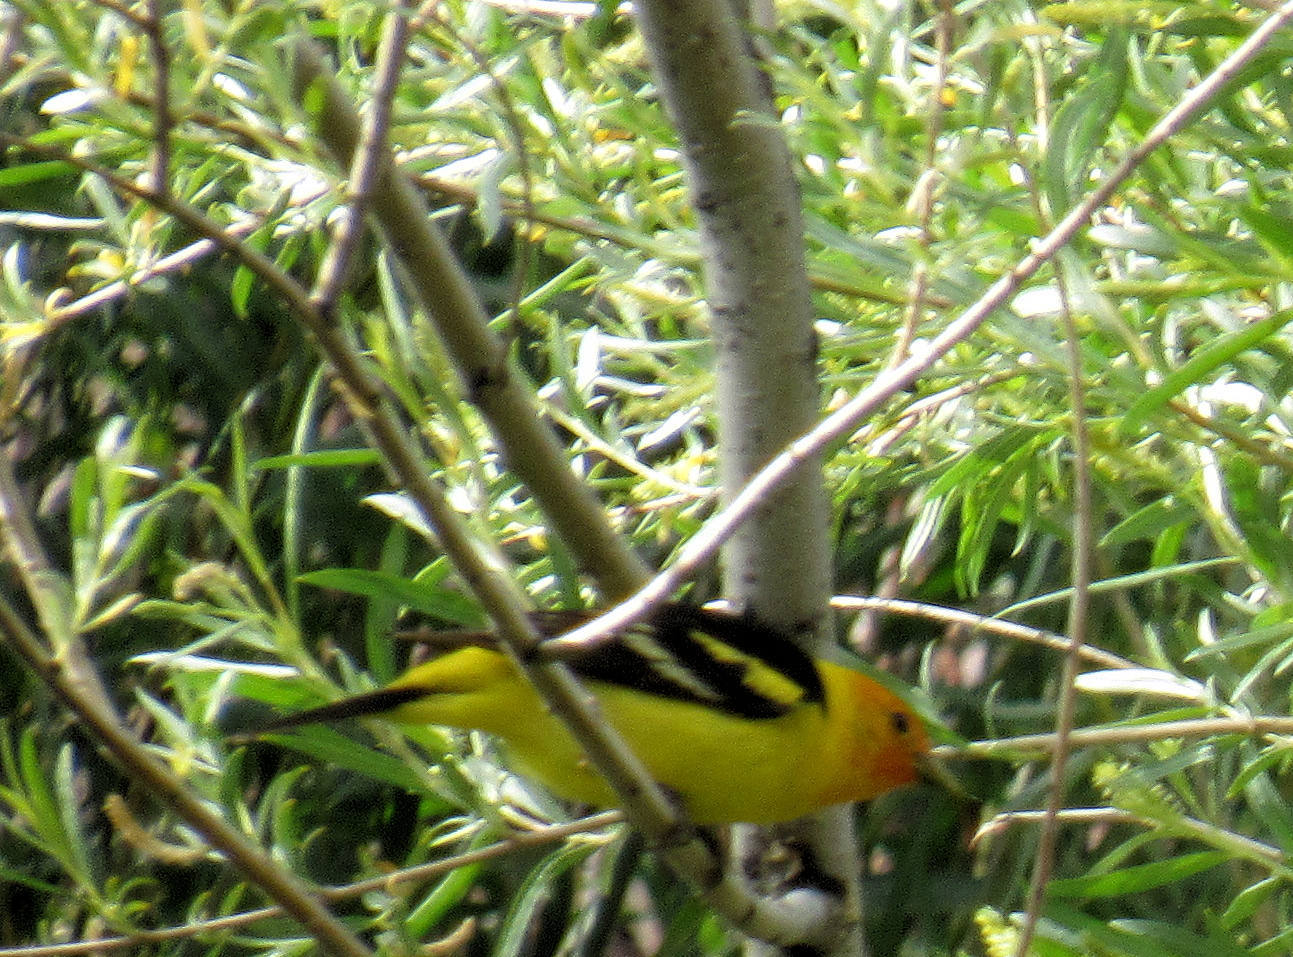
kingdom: Animalia
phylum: Chordata
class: Aves
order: Passeriformes
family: Cardinalidae
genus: Piranga
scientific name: Piranga ludoviciana
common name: Western tanager
